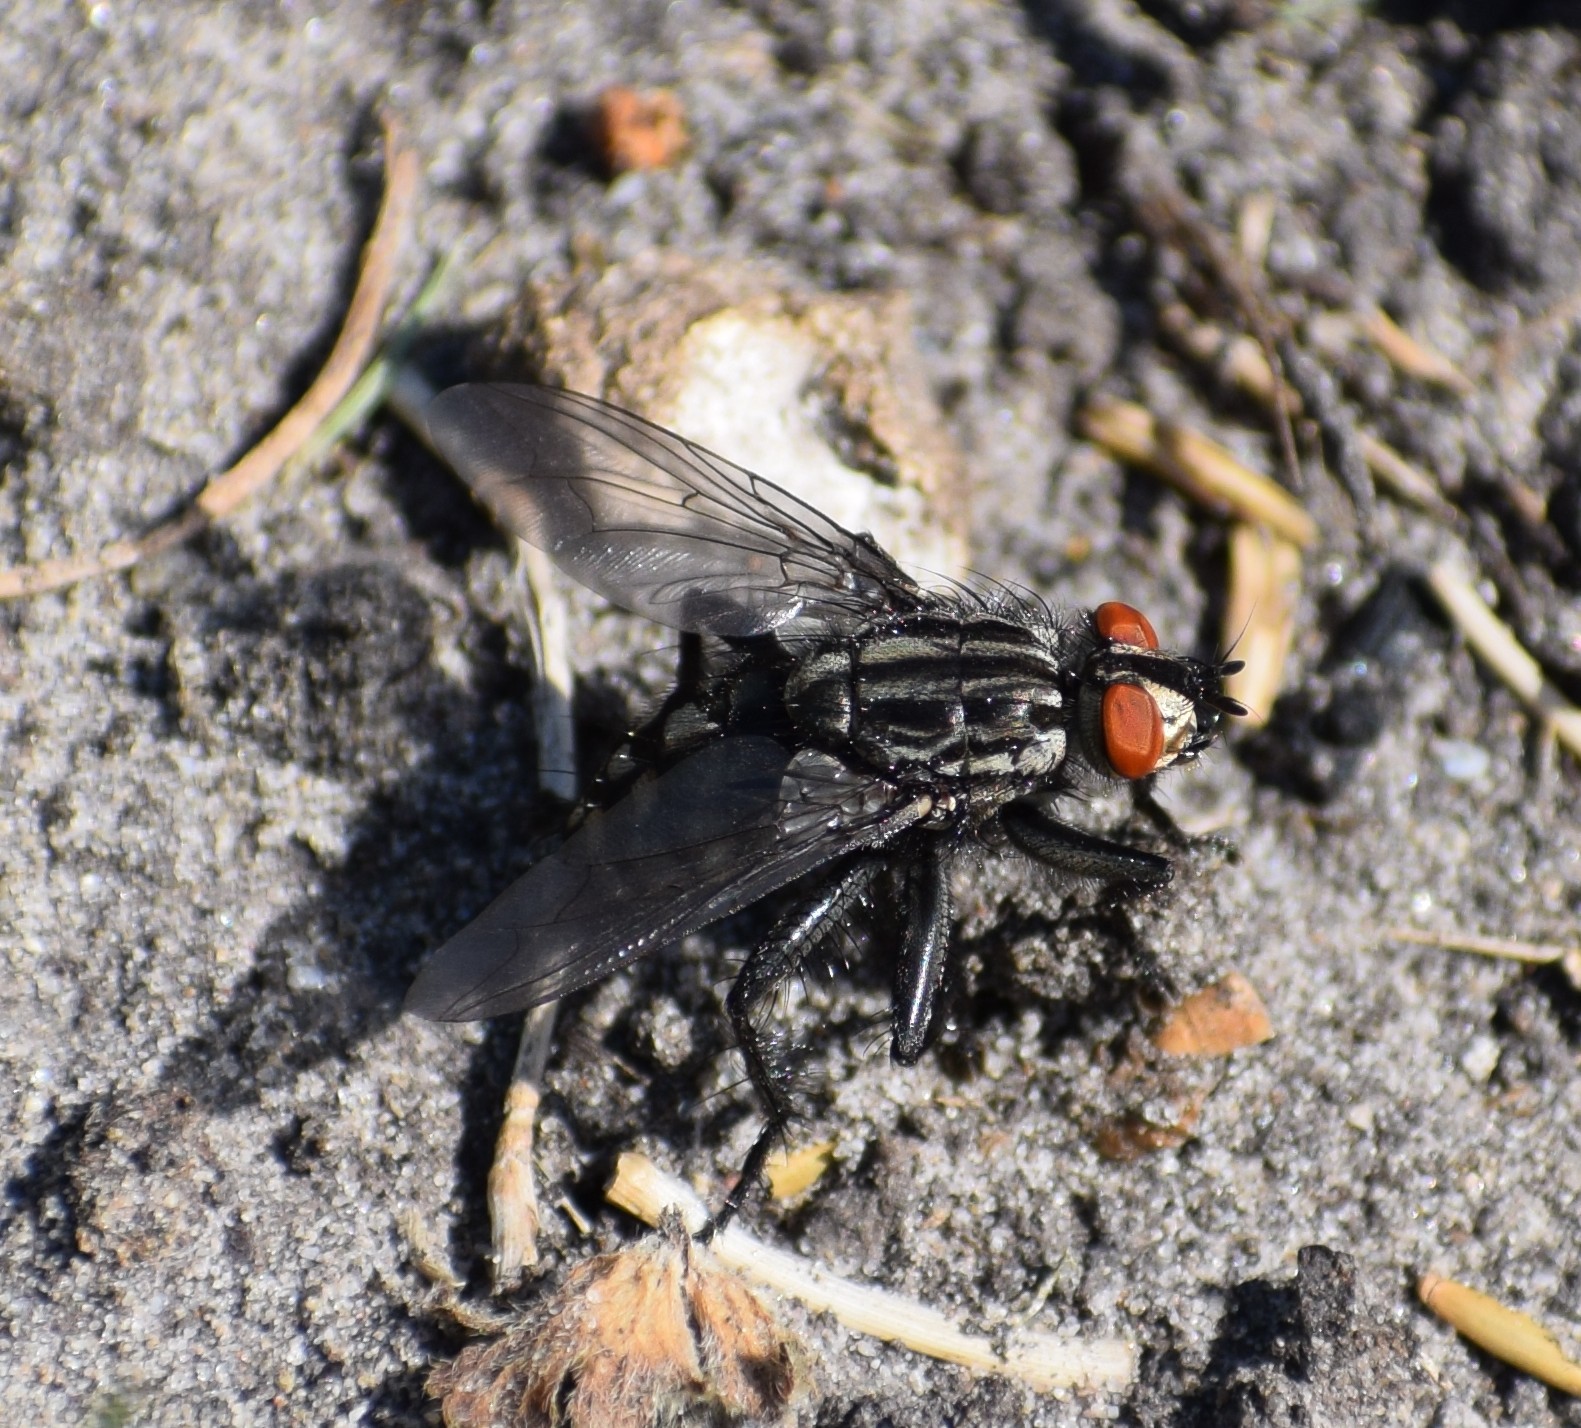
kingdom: Animalia
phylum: Arthropoda
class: Insecta
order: Diptera
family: Sarcophagidae
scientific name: Sarcophagidae
